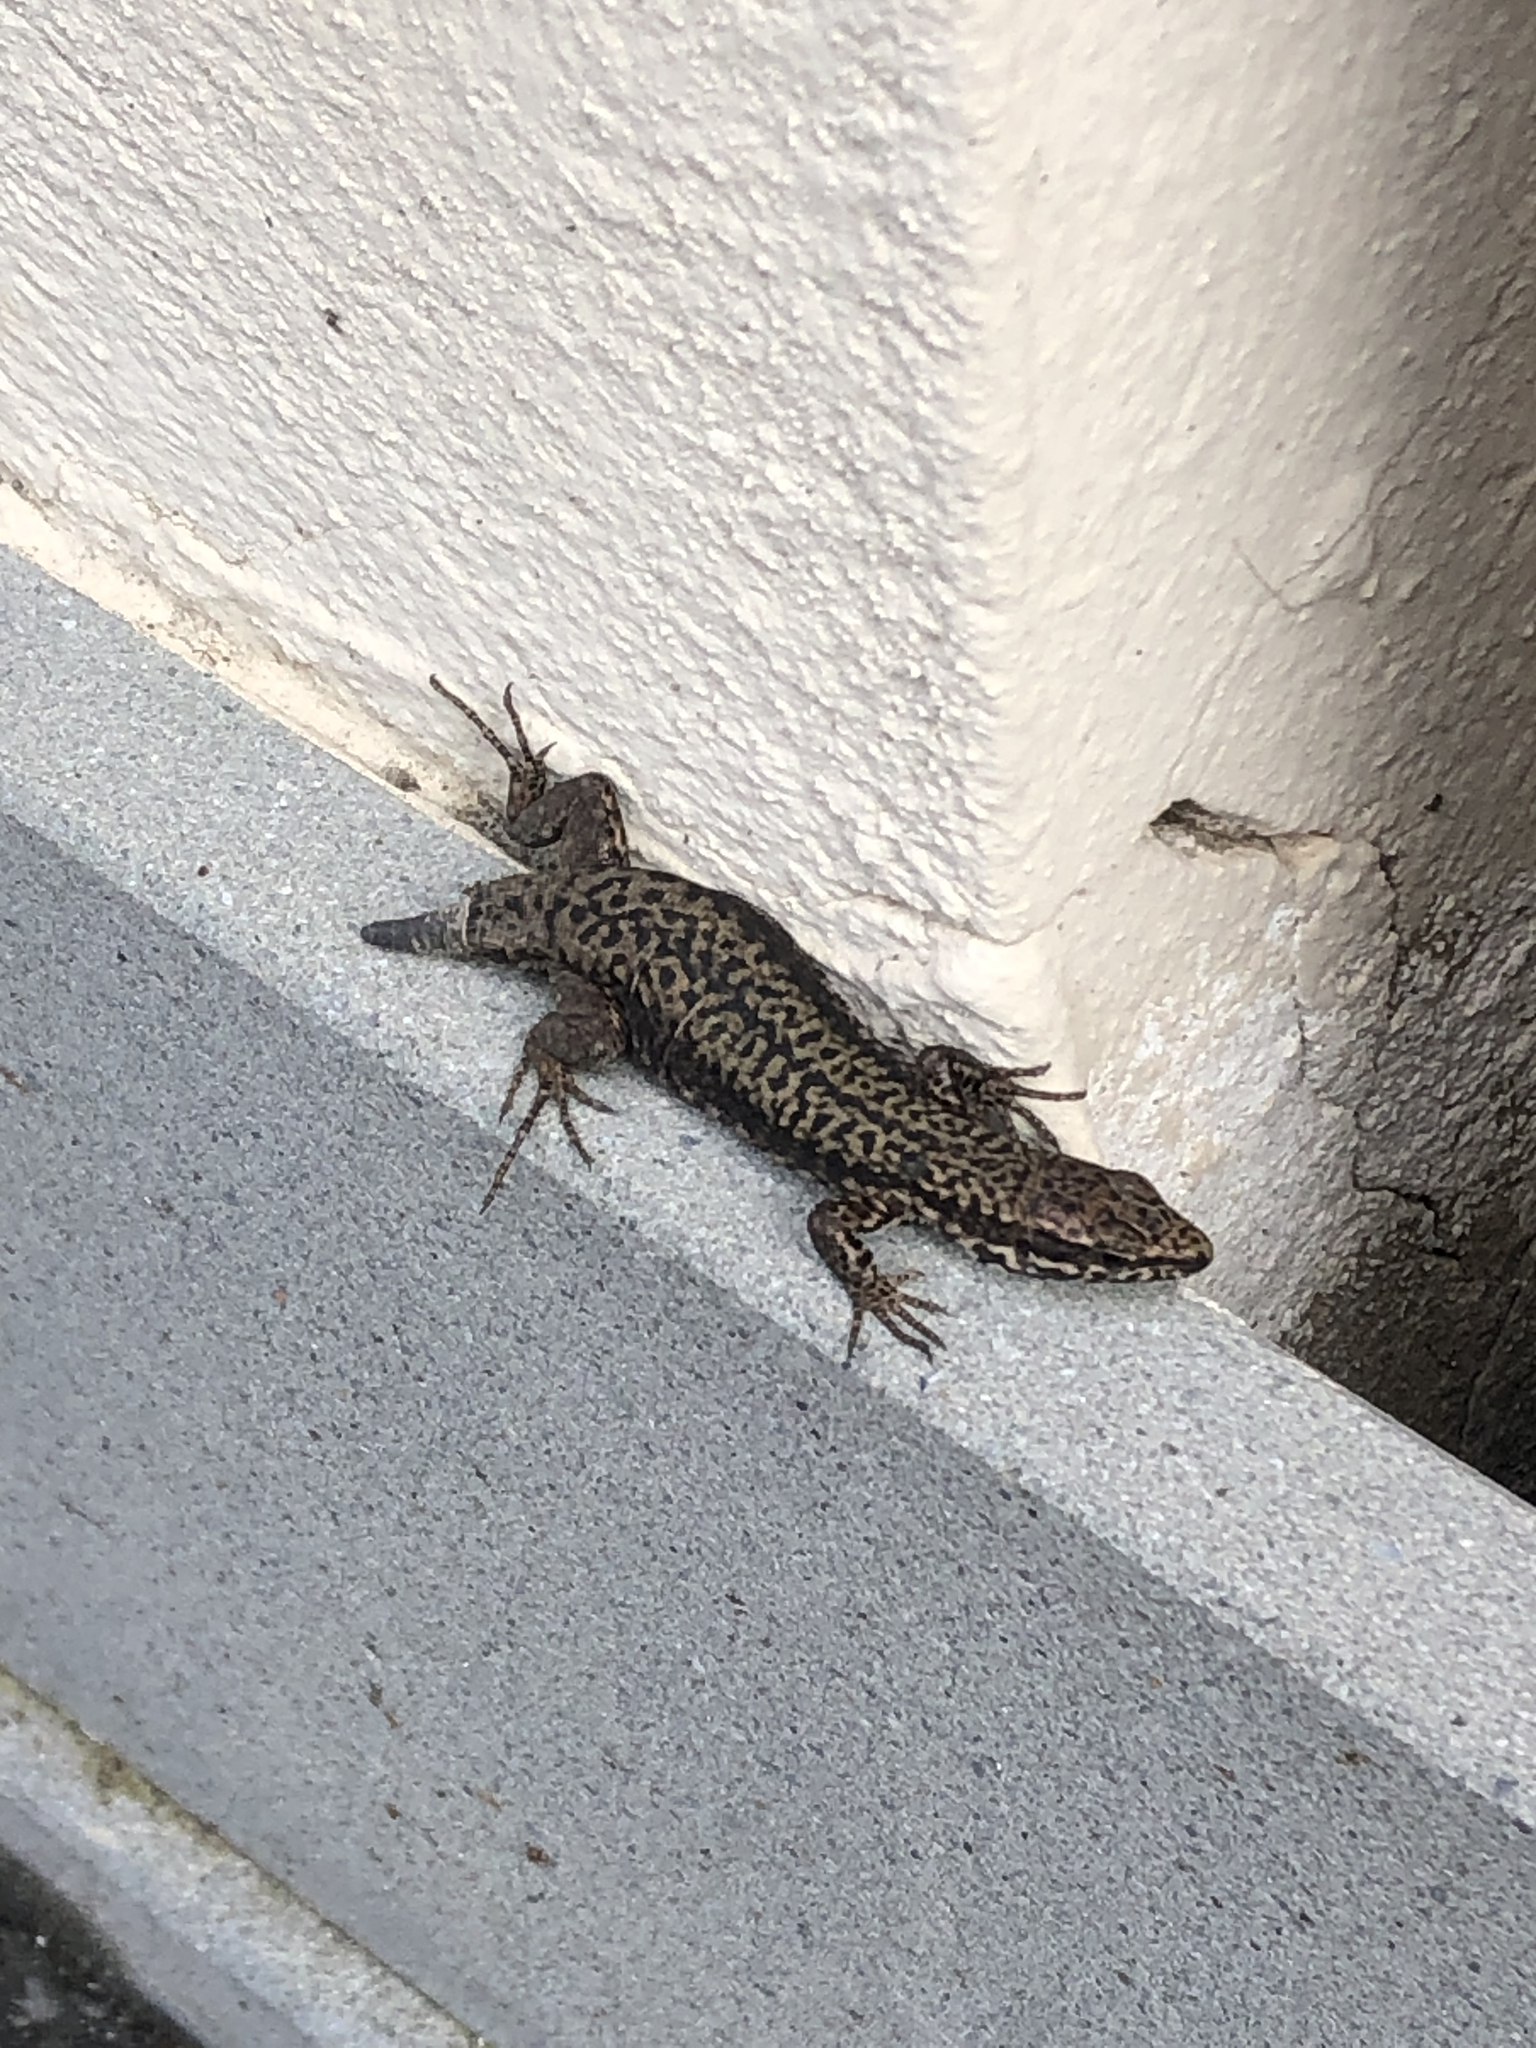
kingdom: Animalia
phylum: Chordata
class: Squamata
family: Lacertidae
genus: Podarcis
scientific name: Podarcis muralis
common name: Common wall lizard
